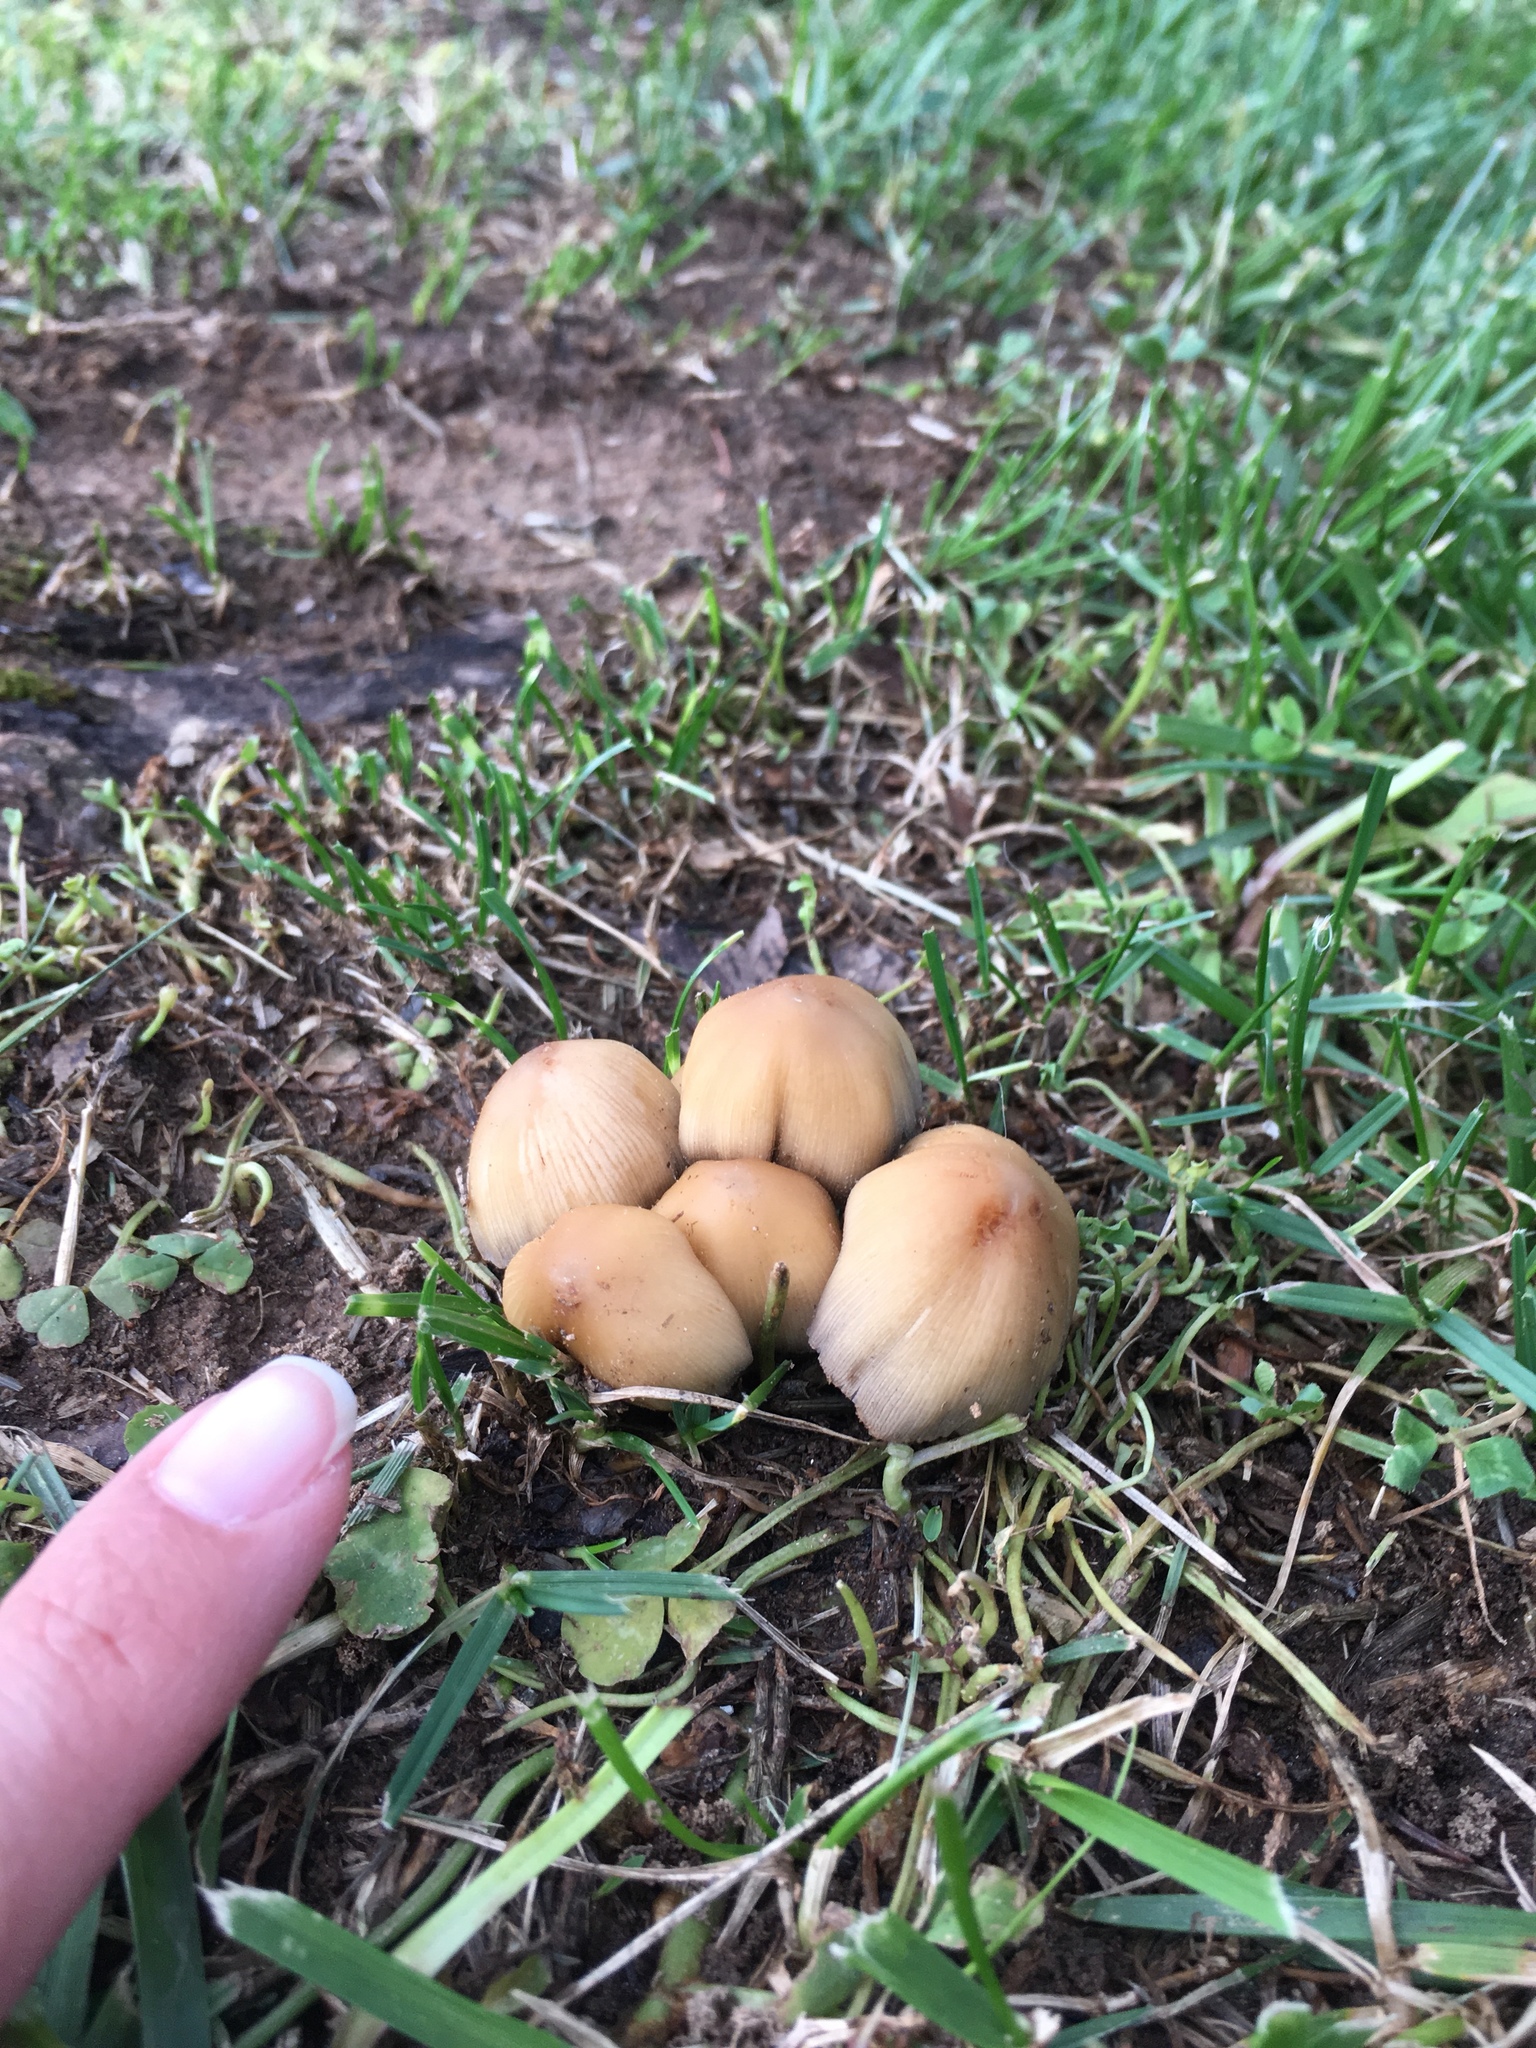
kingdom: Fungi
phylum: Basidiomycota
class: Agaricomycetes
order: Agaricales
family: Psathyrellaceae
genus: Coprinellus
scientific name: Coprinellus micaceus
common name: Glistening ink-cap
